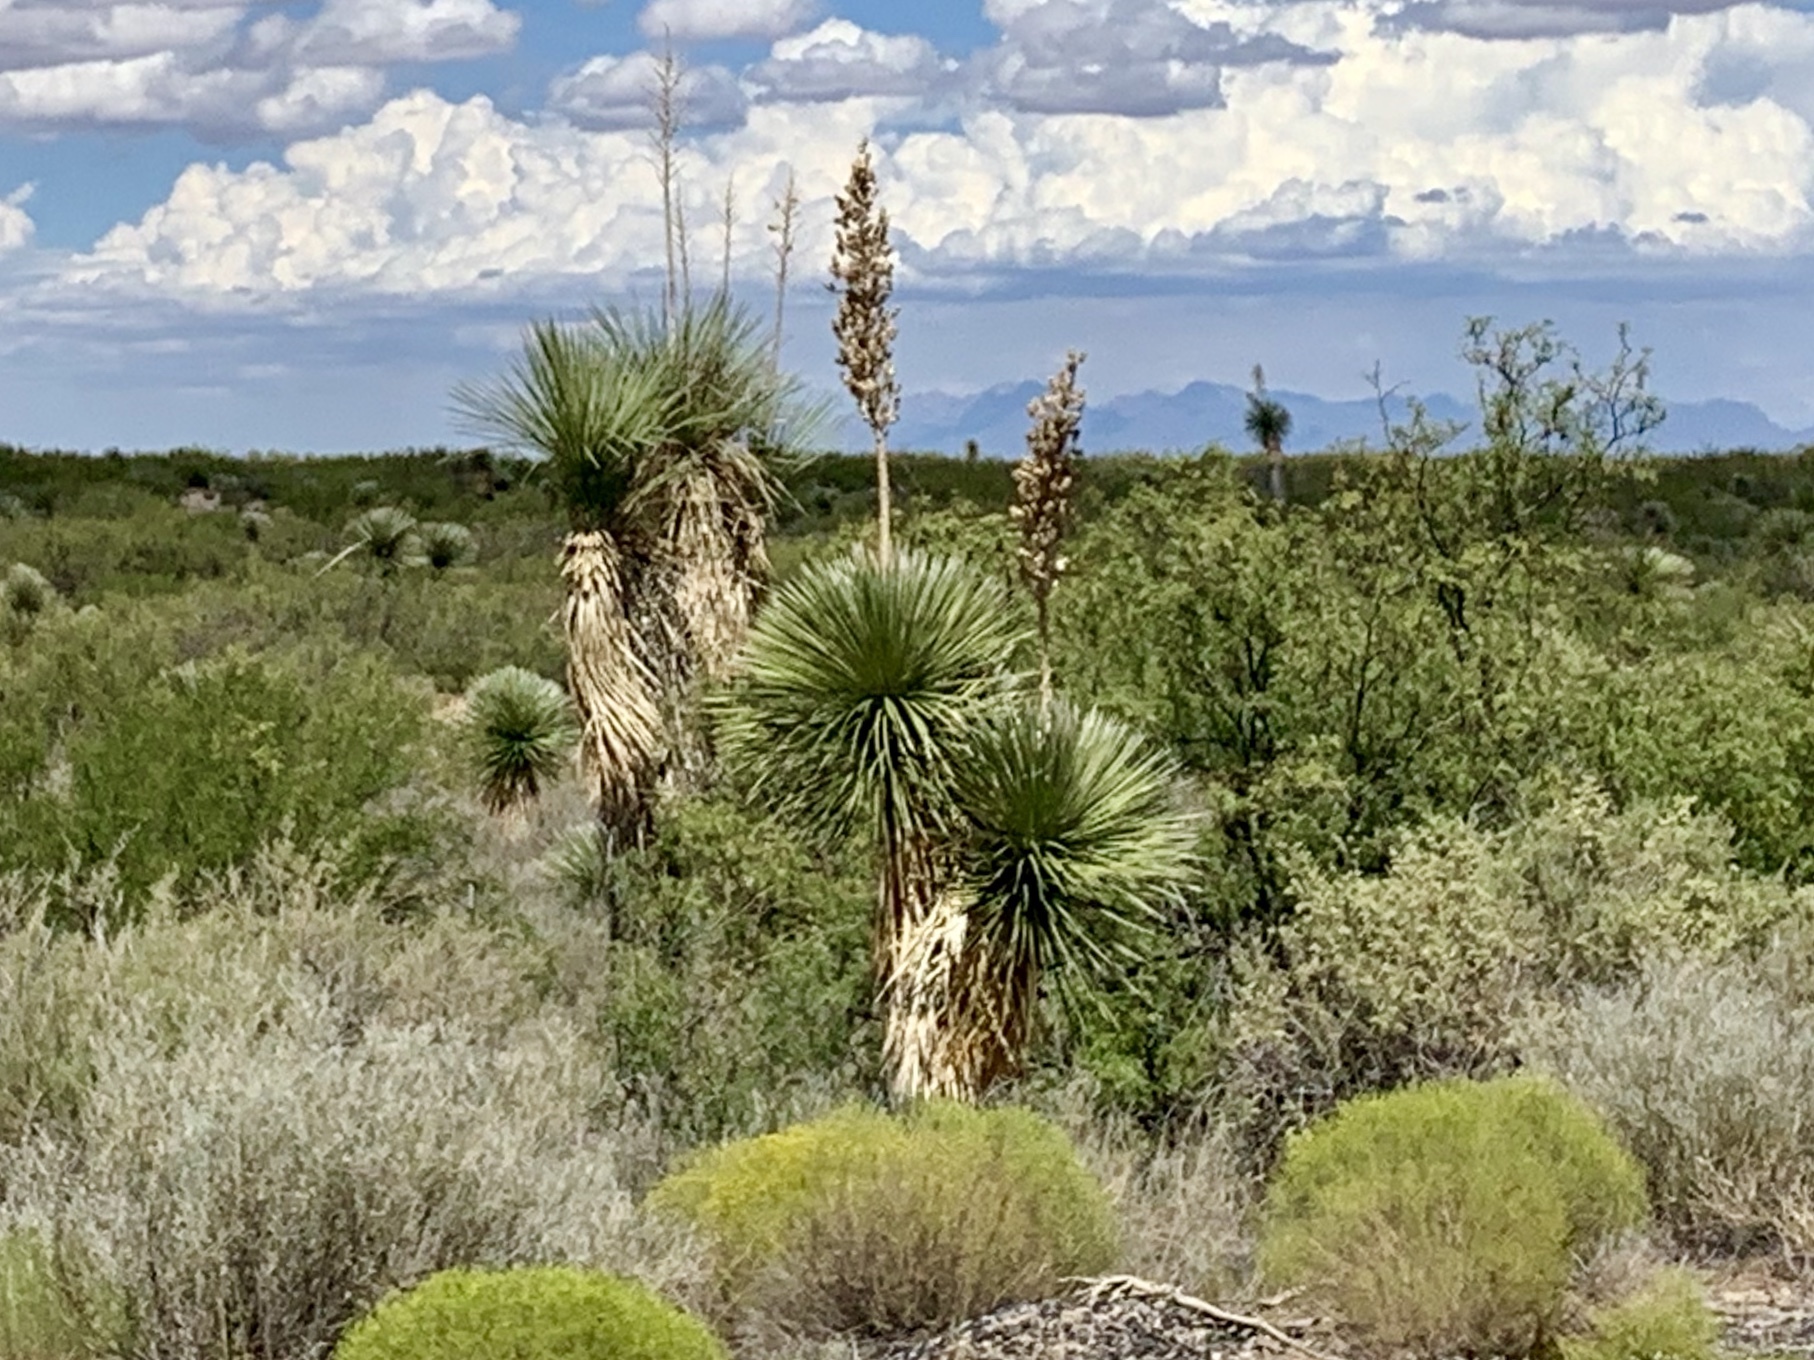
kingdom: Plantae
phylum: Tracheophyta
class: Liliopsida
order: Asparagales
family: Asparagaceae
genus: Yucca
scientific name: Yucca elata
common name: Palmella
